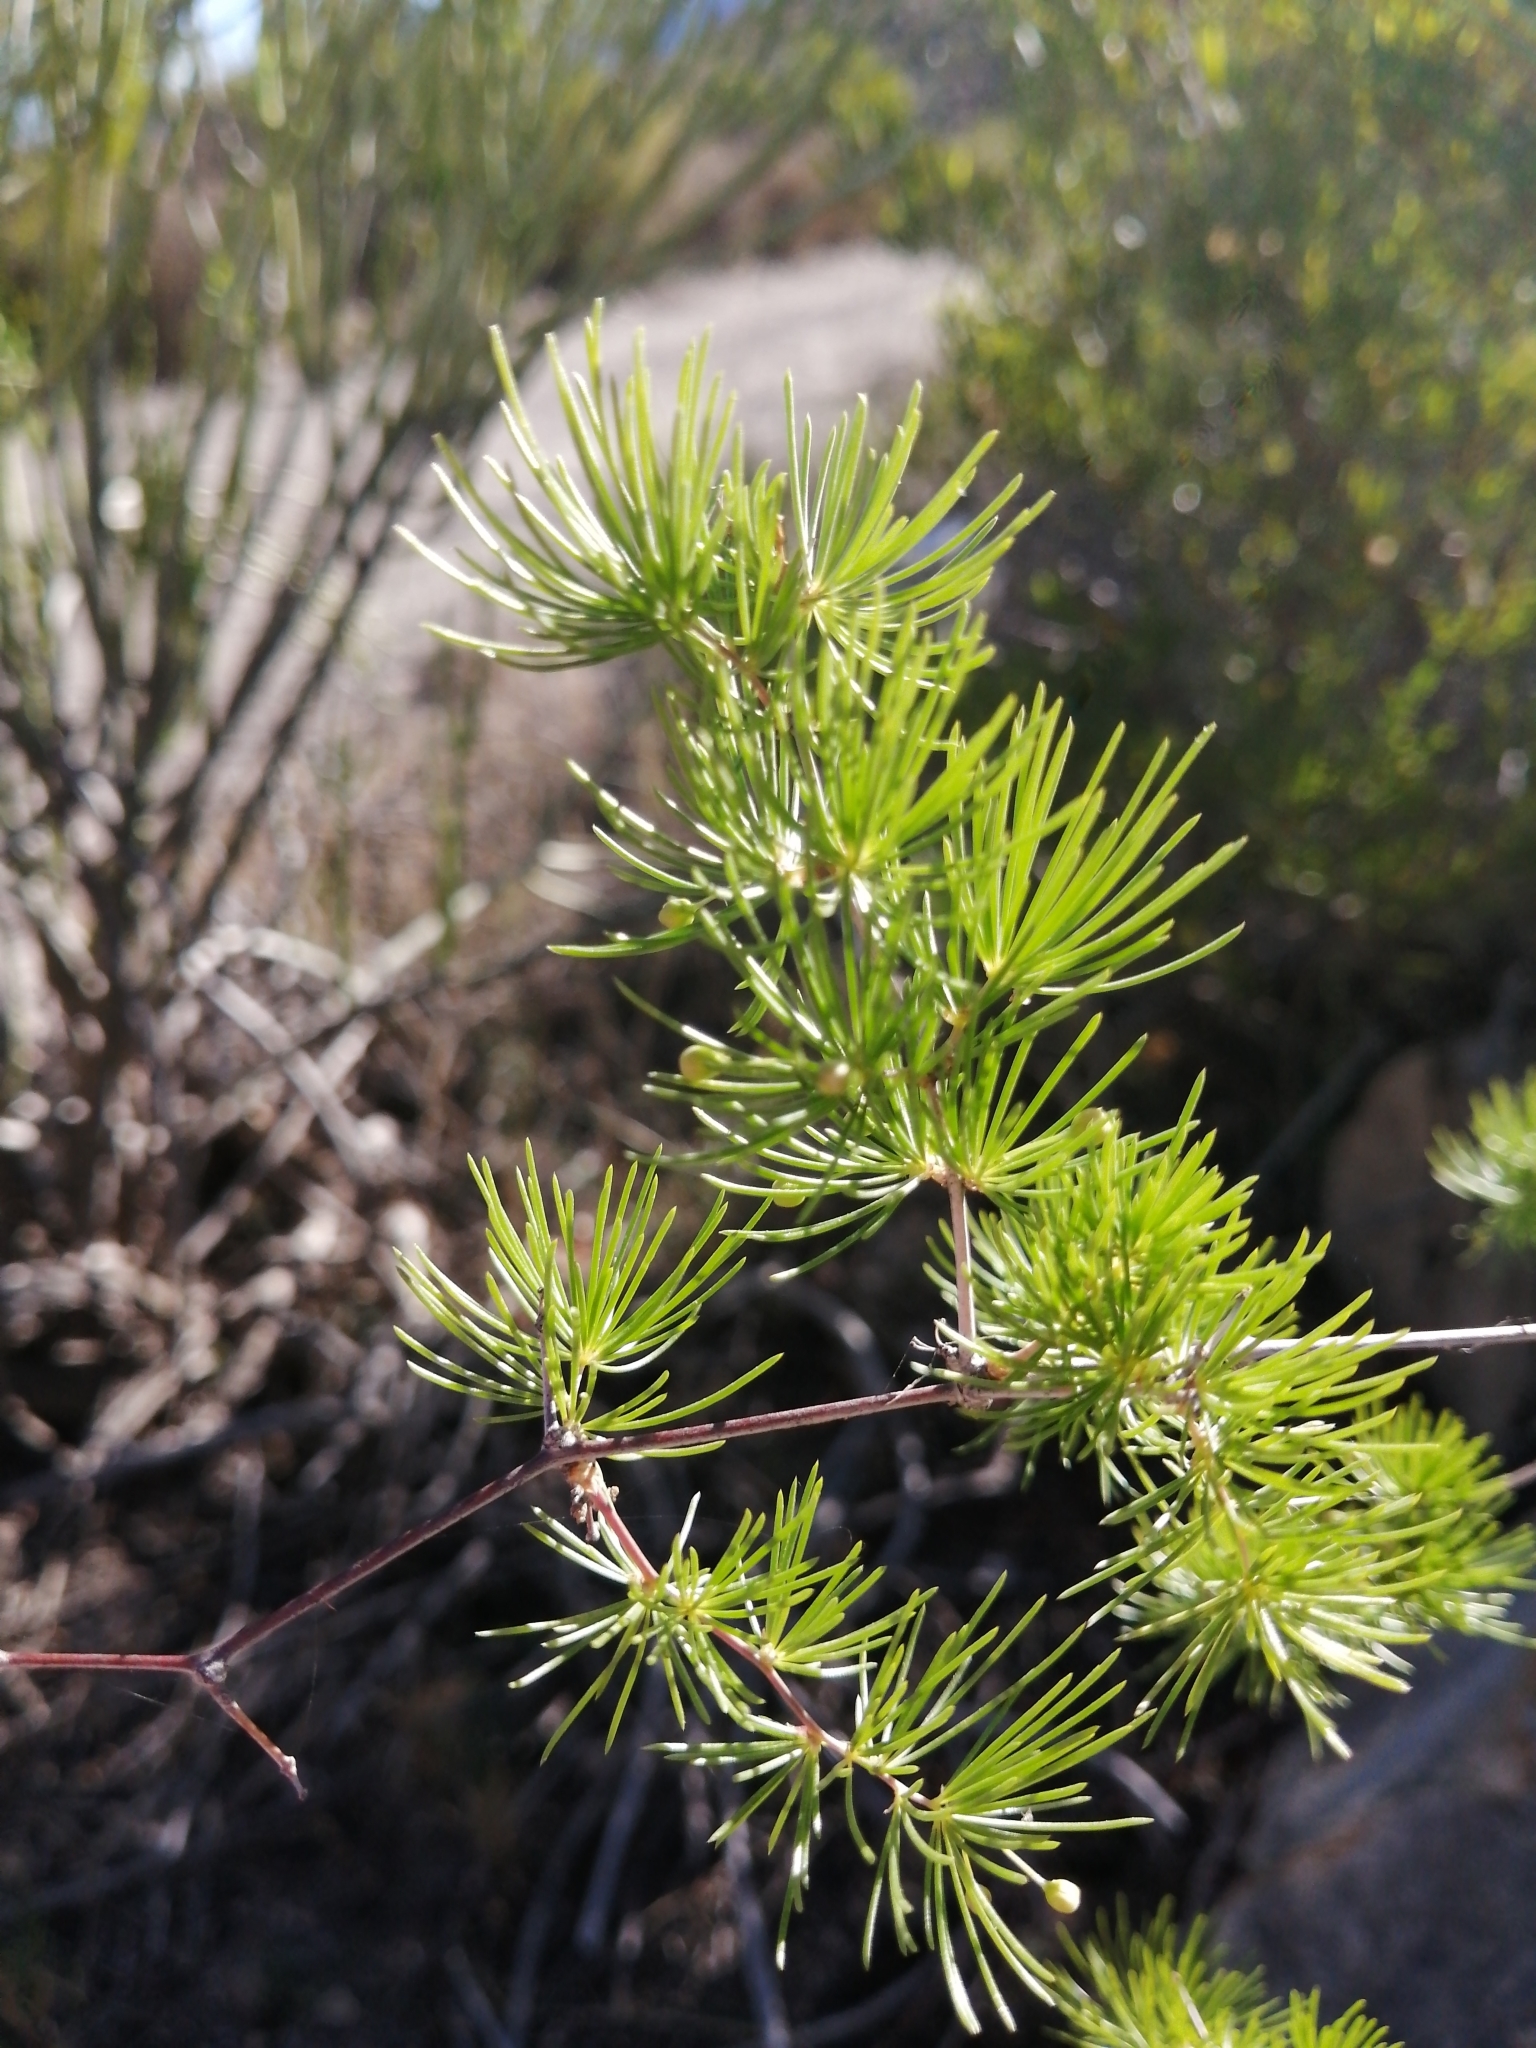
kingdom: Plantae
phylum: Tracheophyta
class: Liliopsida
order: Asparagales
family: Asparagaceae
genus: Asparagus
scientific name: Asparagus retrofractus
